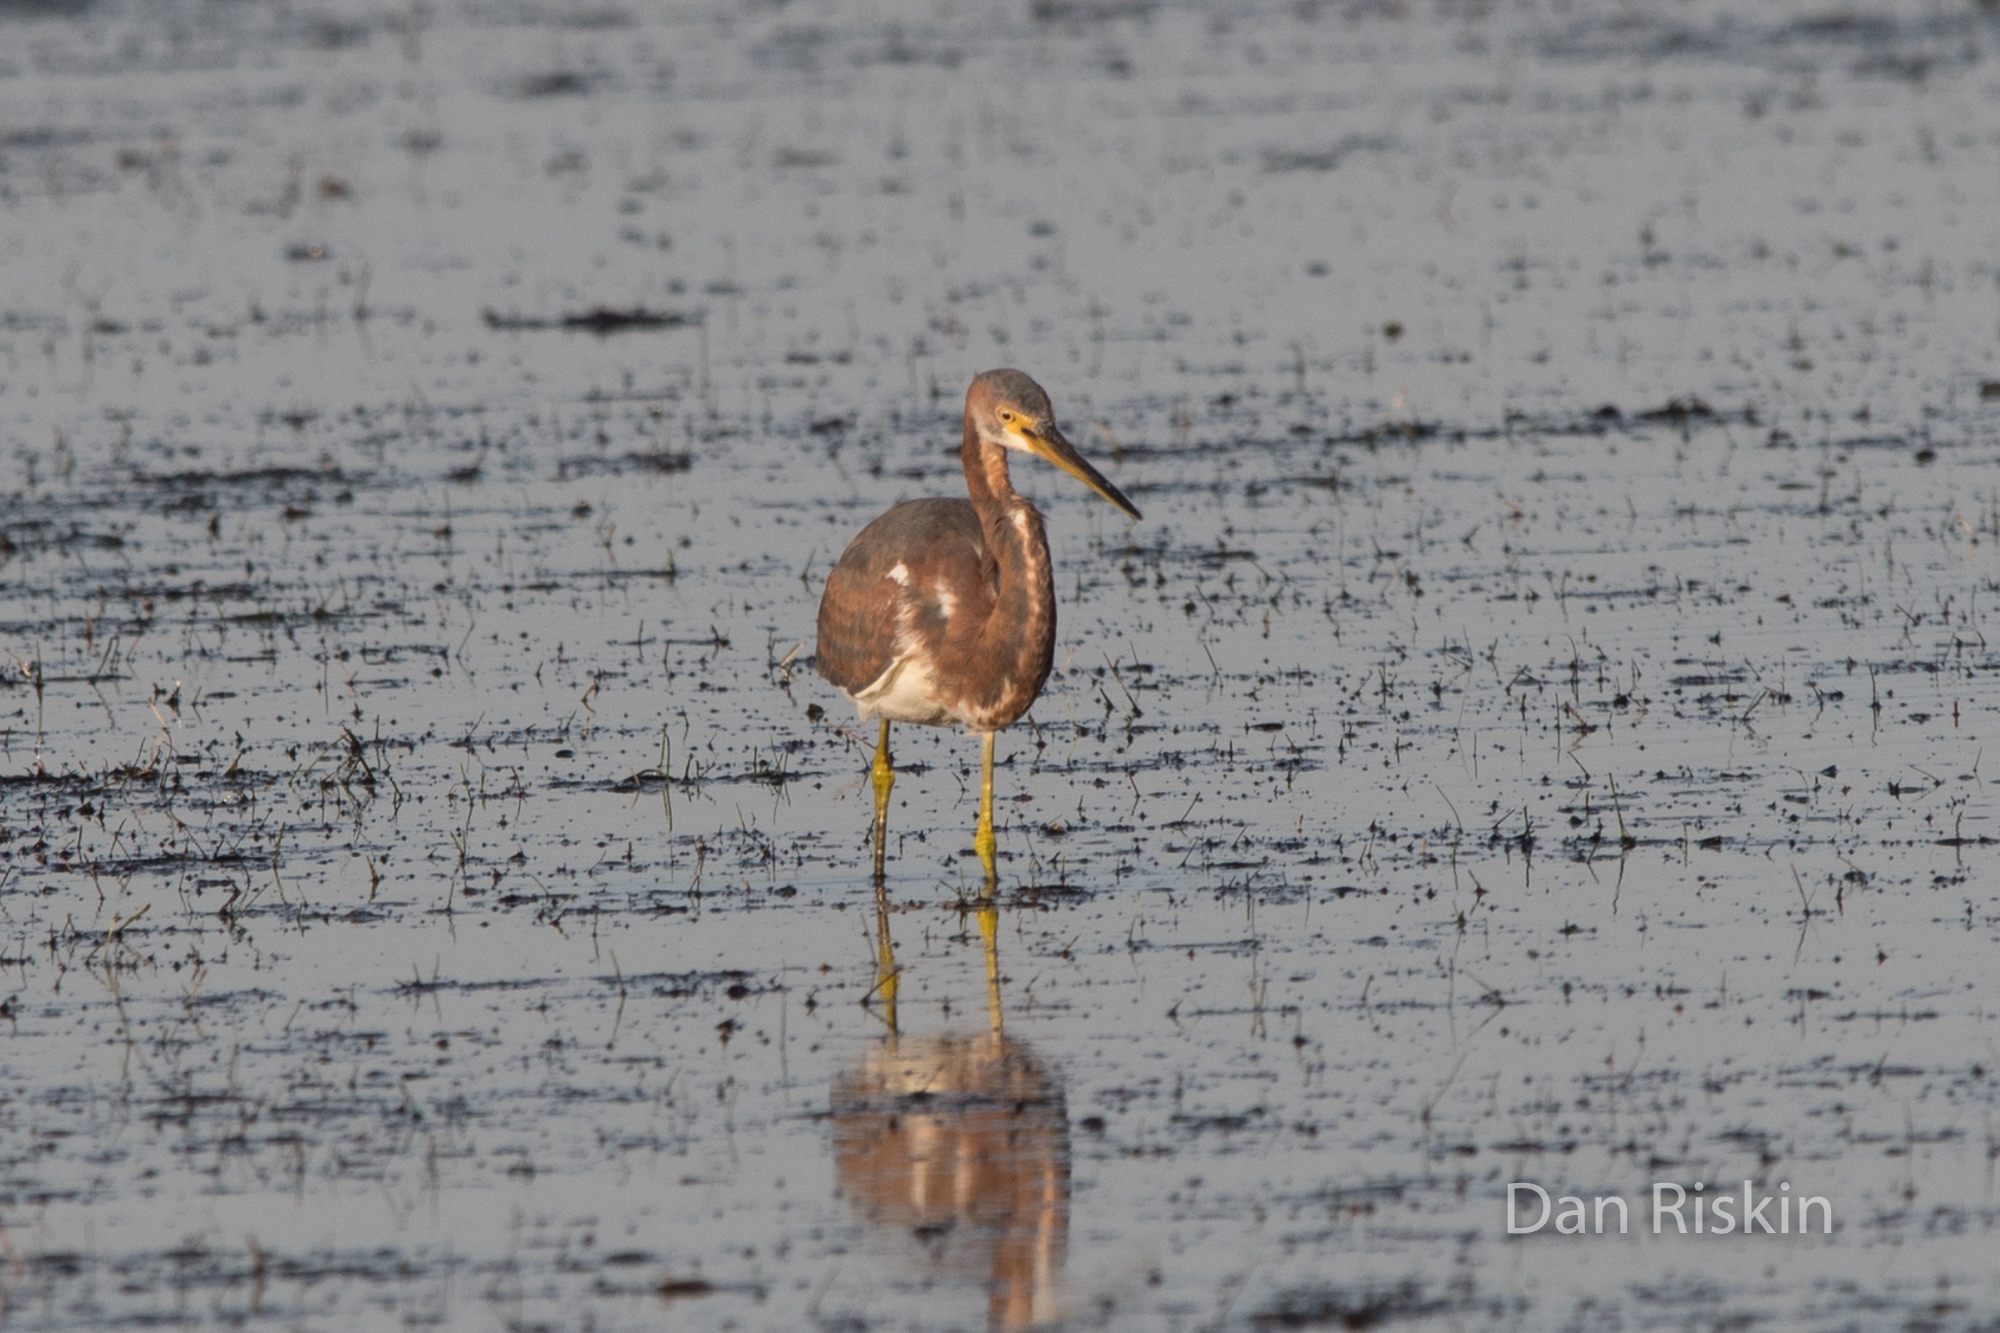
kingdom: Animalia
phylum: Chordata
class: Aves
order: Pelecaniformes
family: Ardeidae
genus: Egretta
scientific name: Egretta tricolor
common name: Tricolored heron
